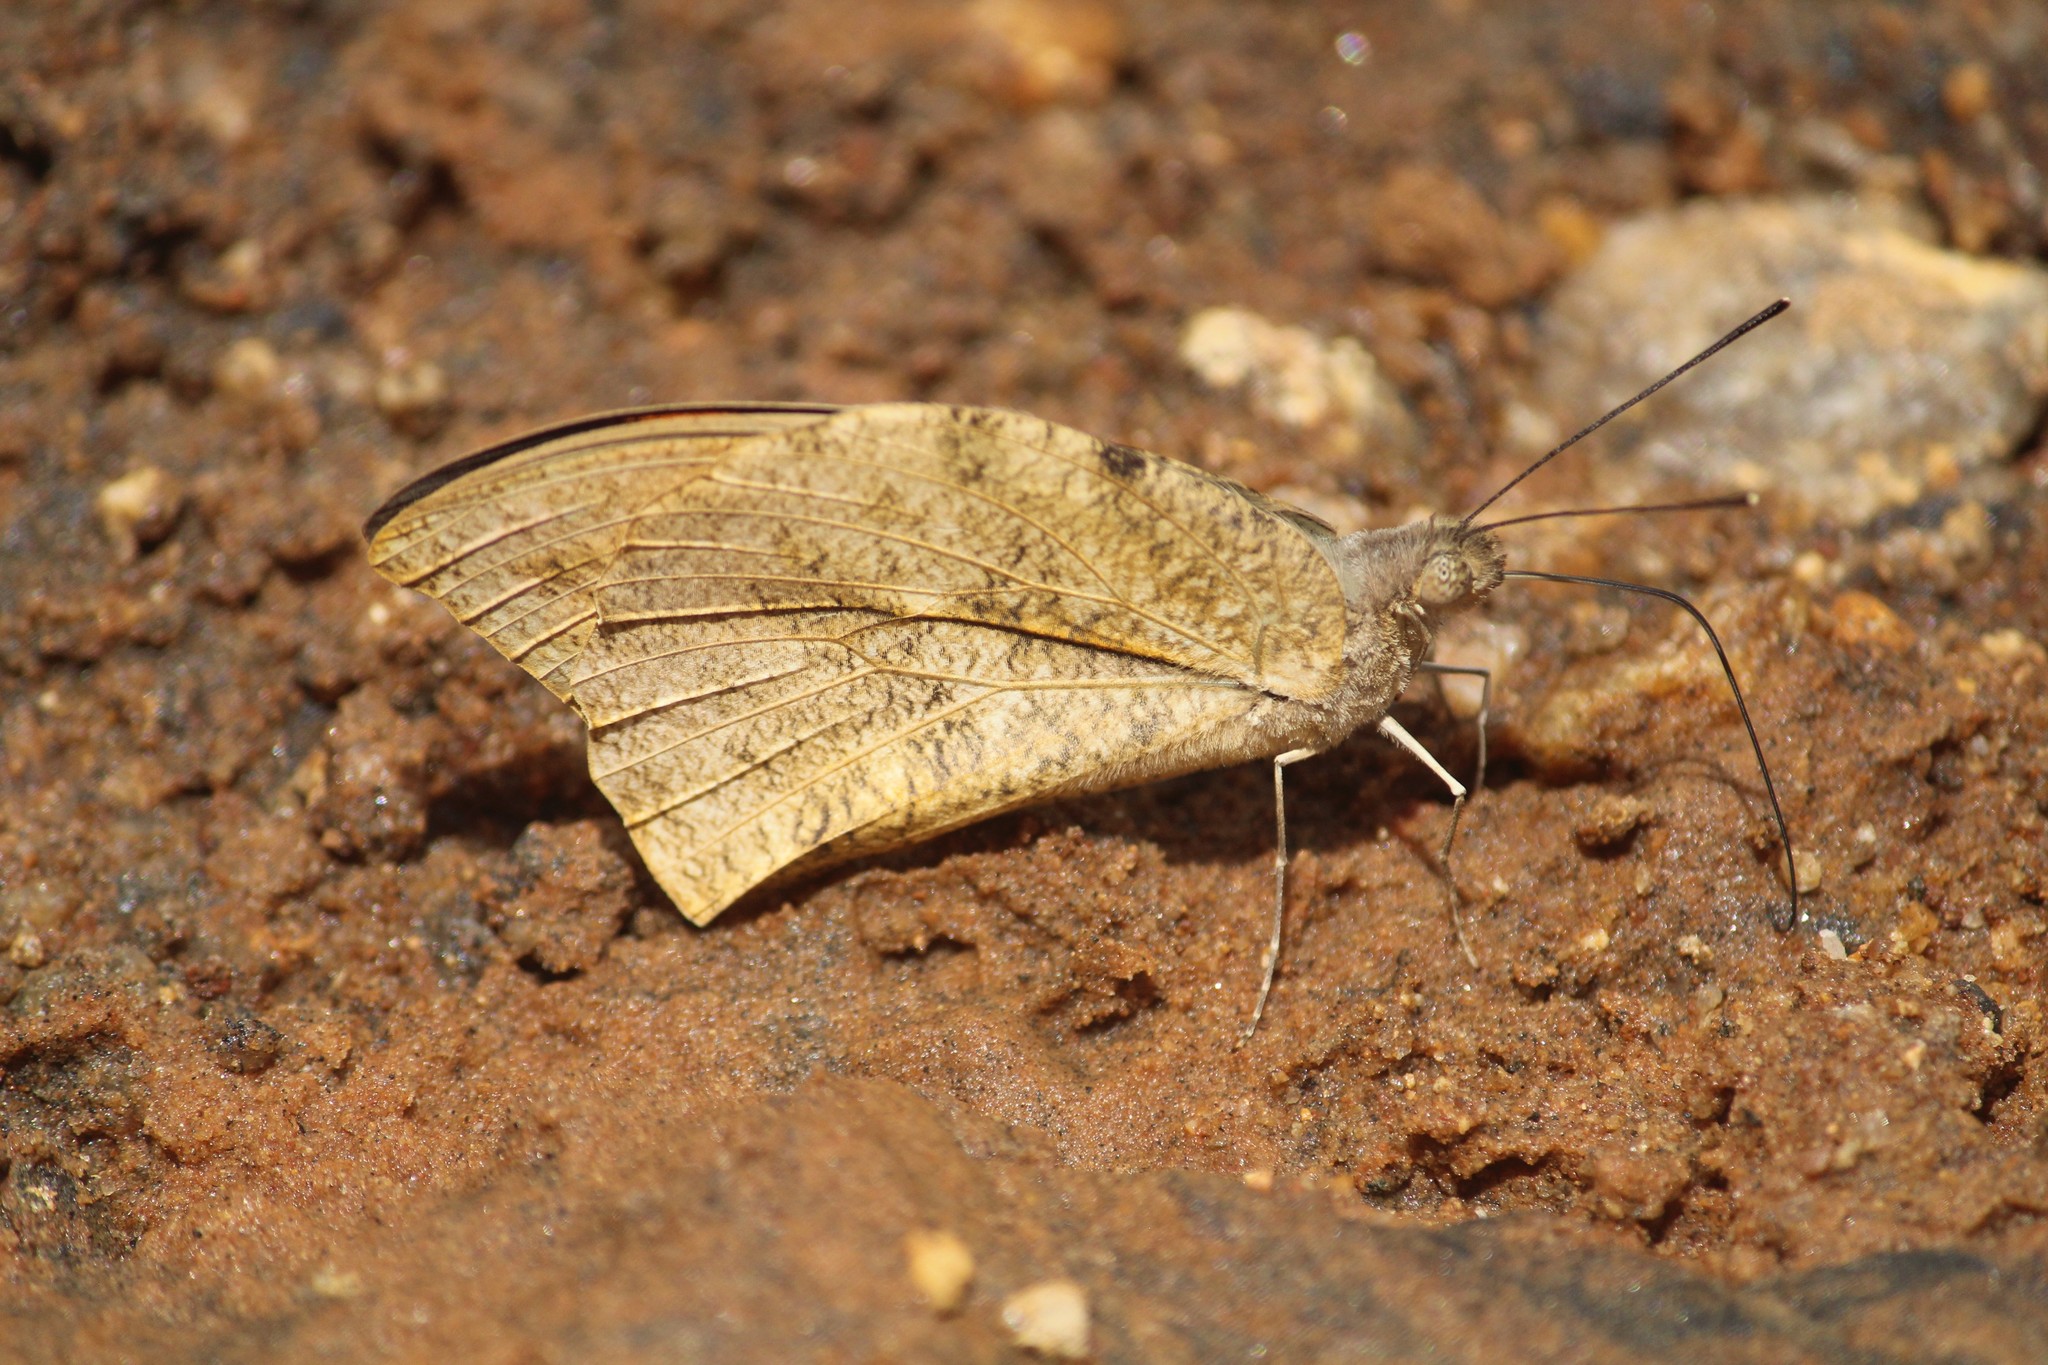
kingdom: Animalia
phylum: Arthropoda
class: Insecta
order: Lepidoptera
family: Pieridae
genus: Hebomoia
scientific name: Hebomoia glaucippe
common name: Great orange tip
